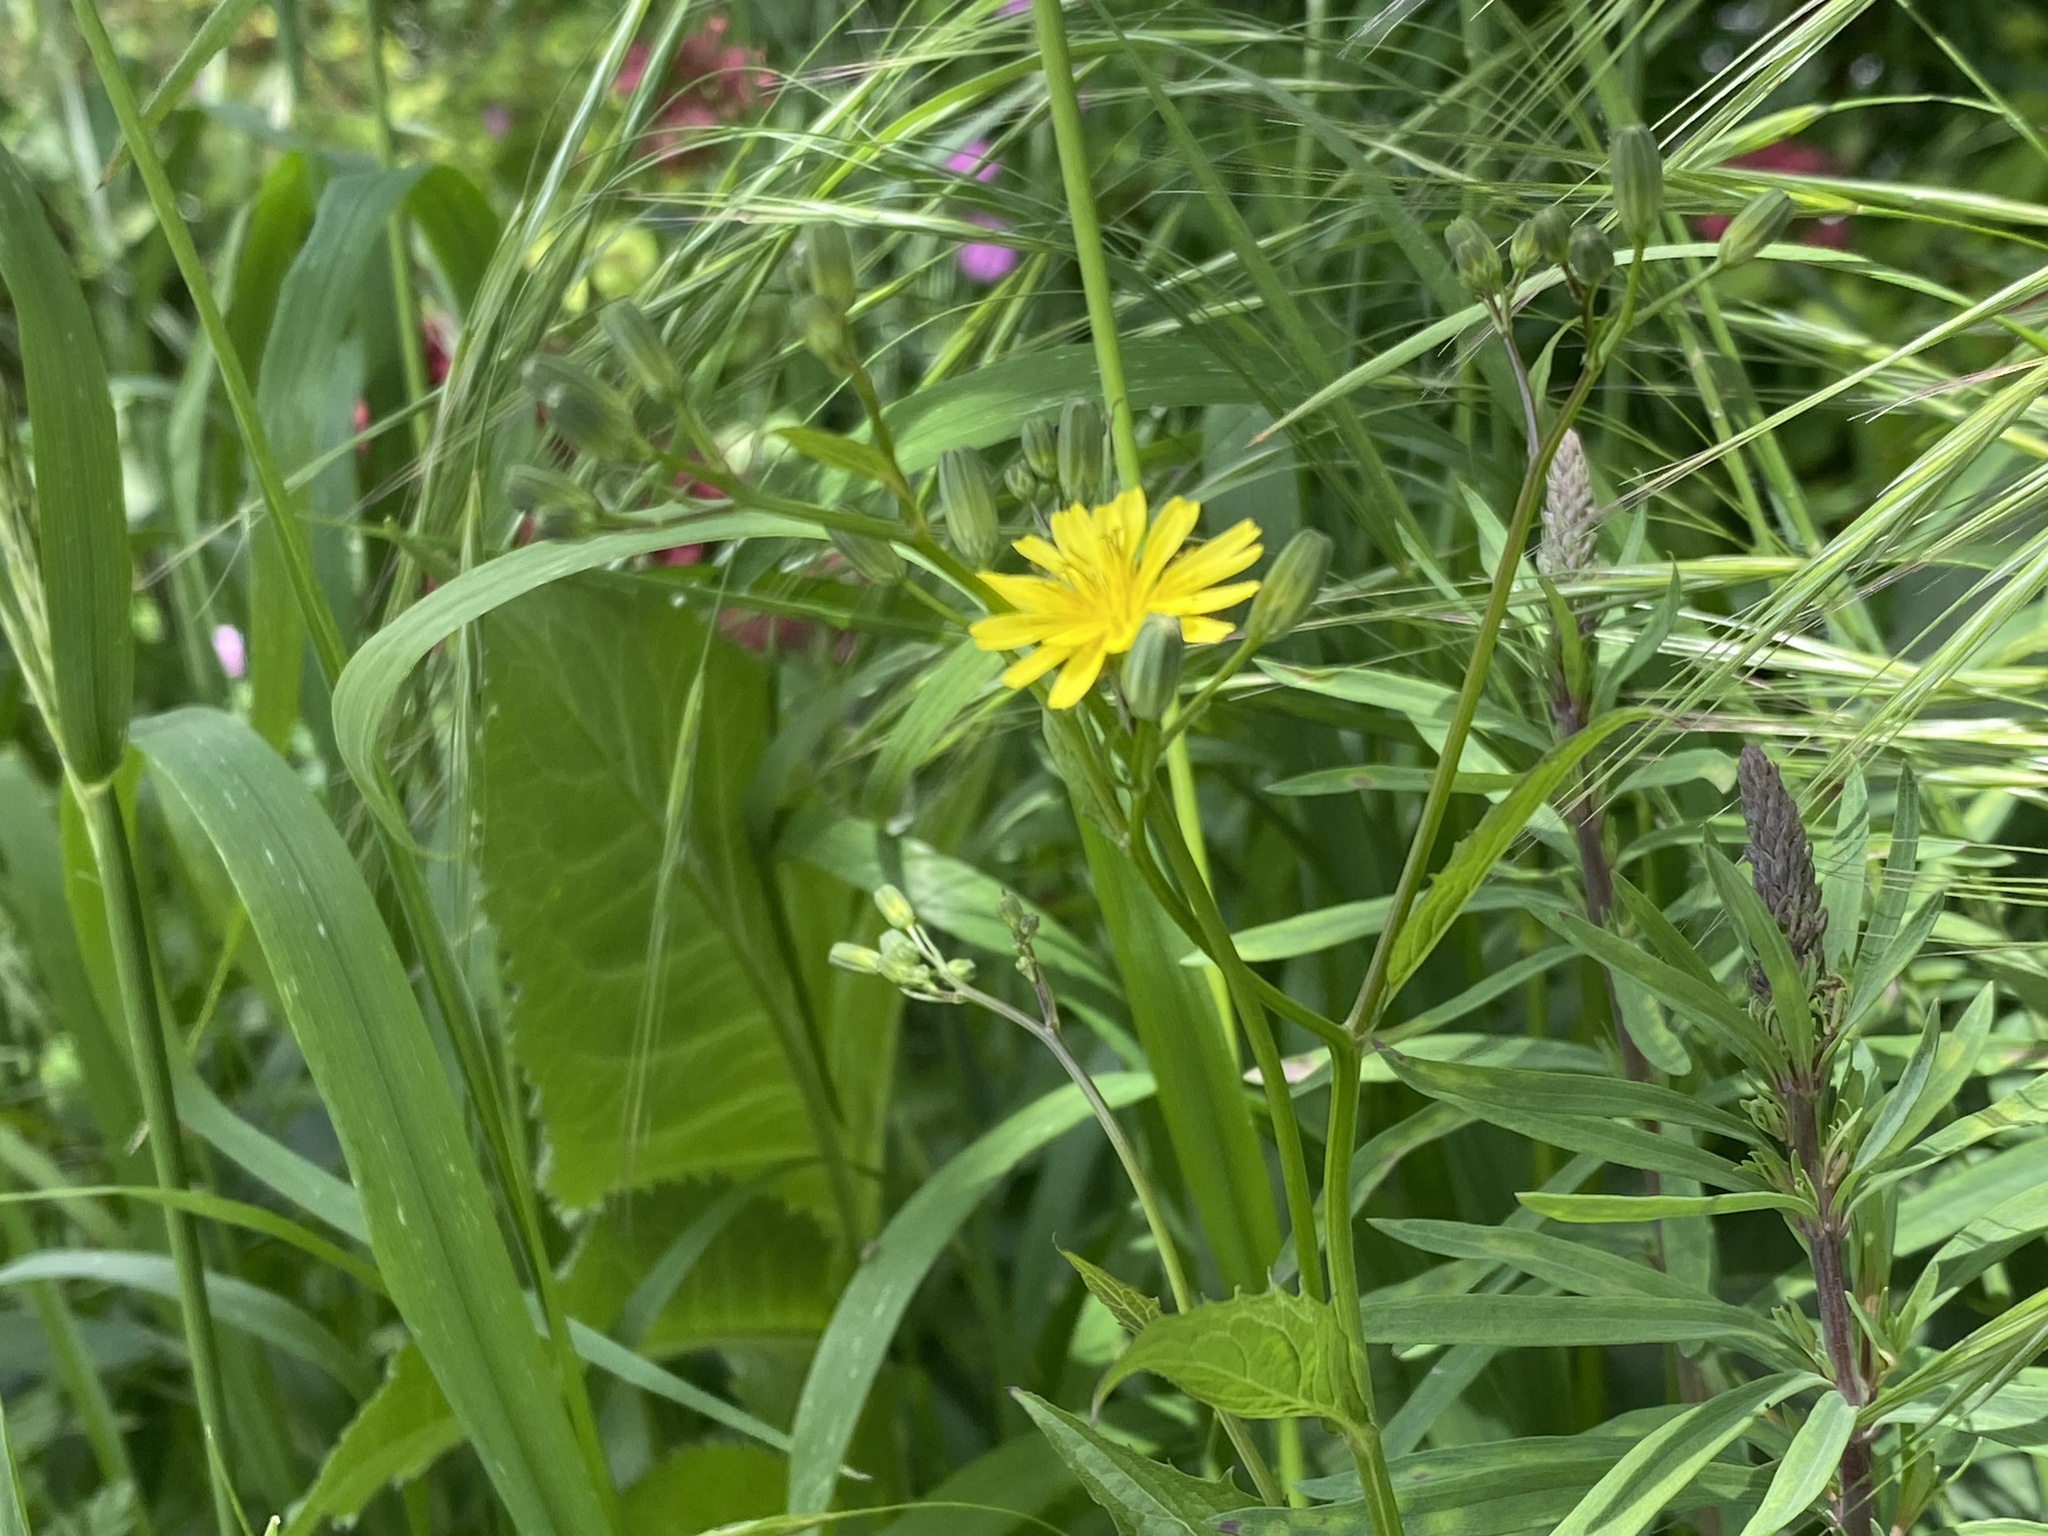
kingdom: Plantae
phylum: Tracheophyta
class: Magnoliopsida
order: Asterales
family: Asteraceae
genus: Lapsana
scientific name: Lapsana communis
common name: Nipplewort
